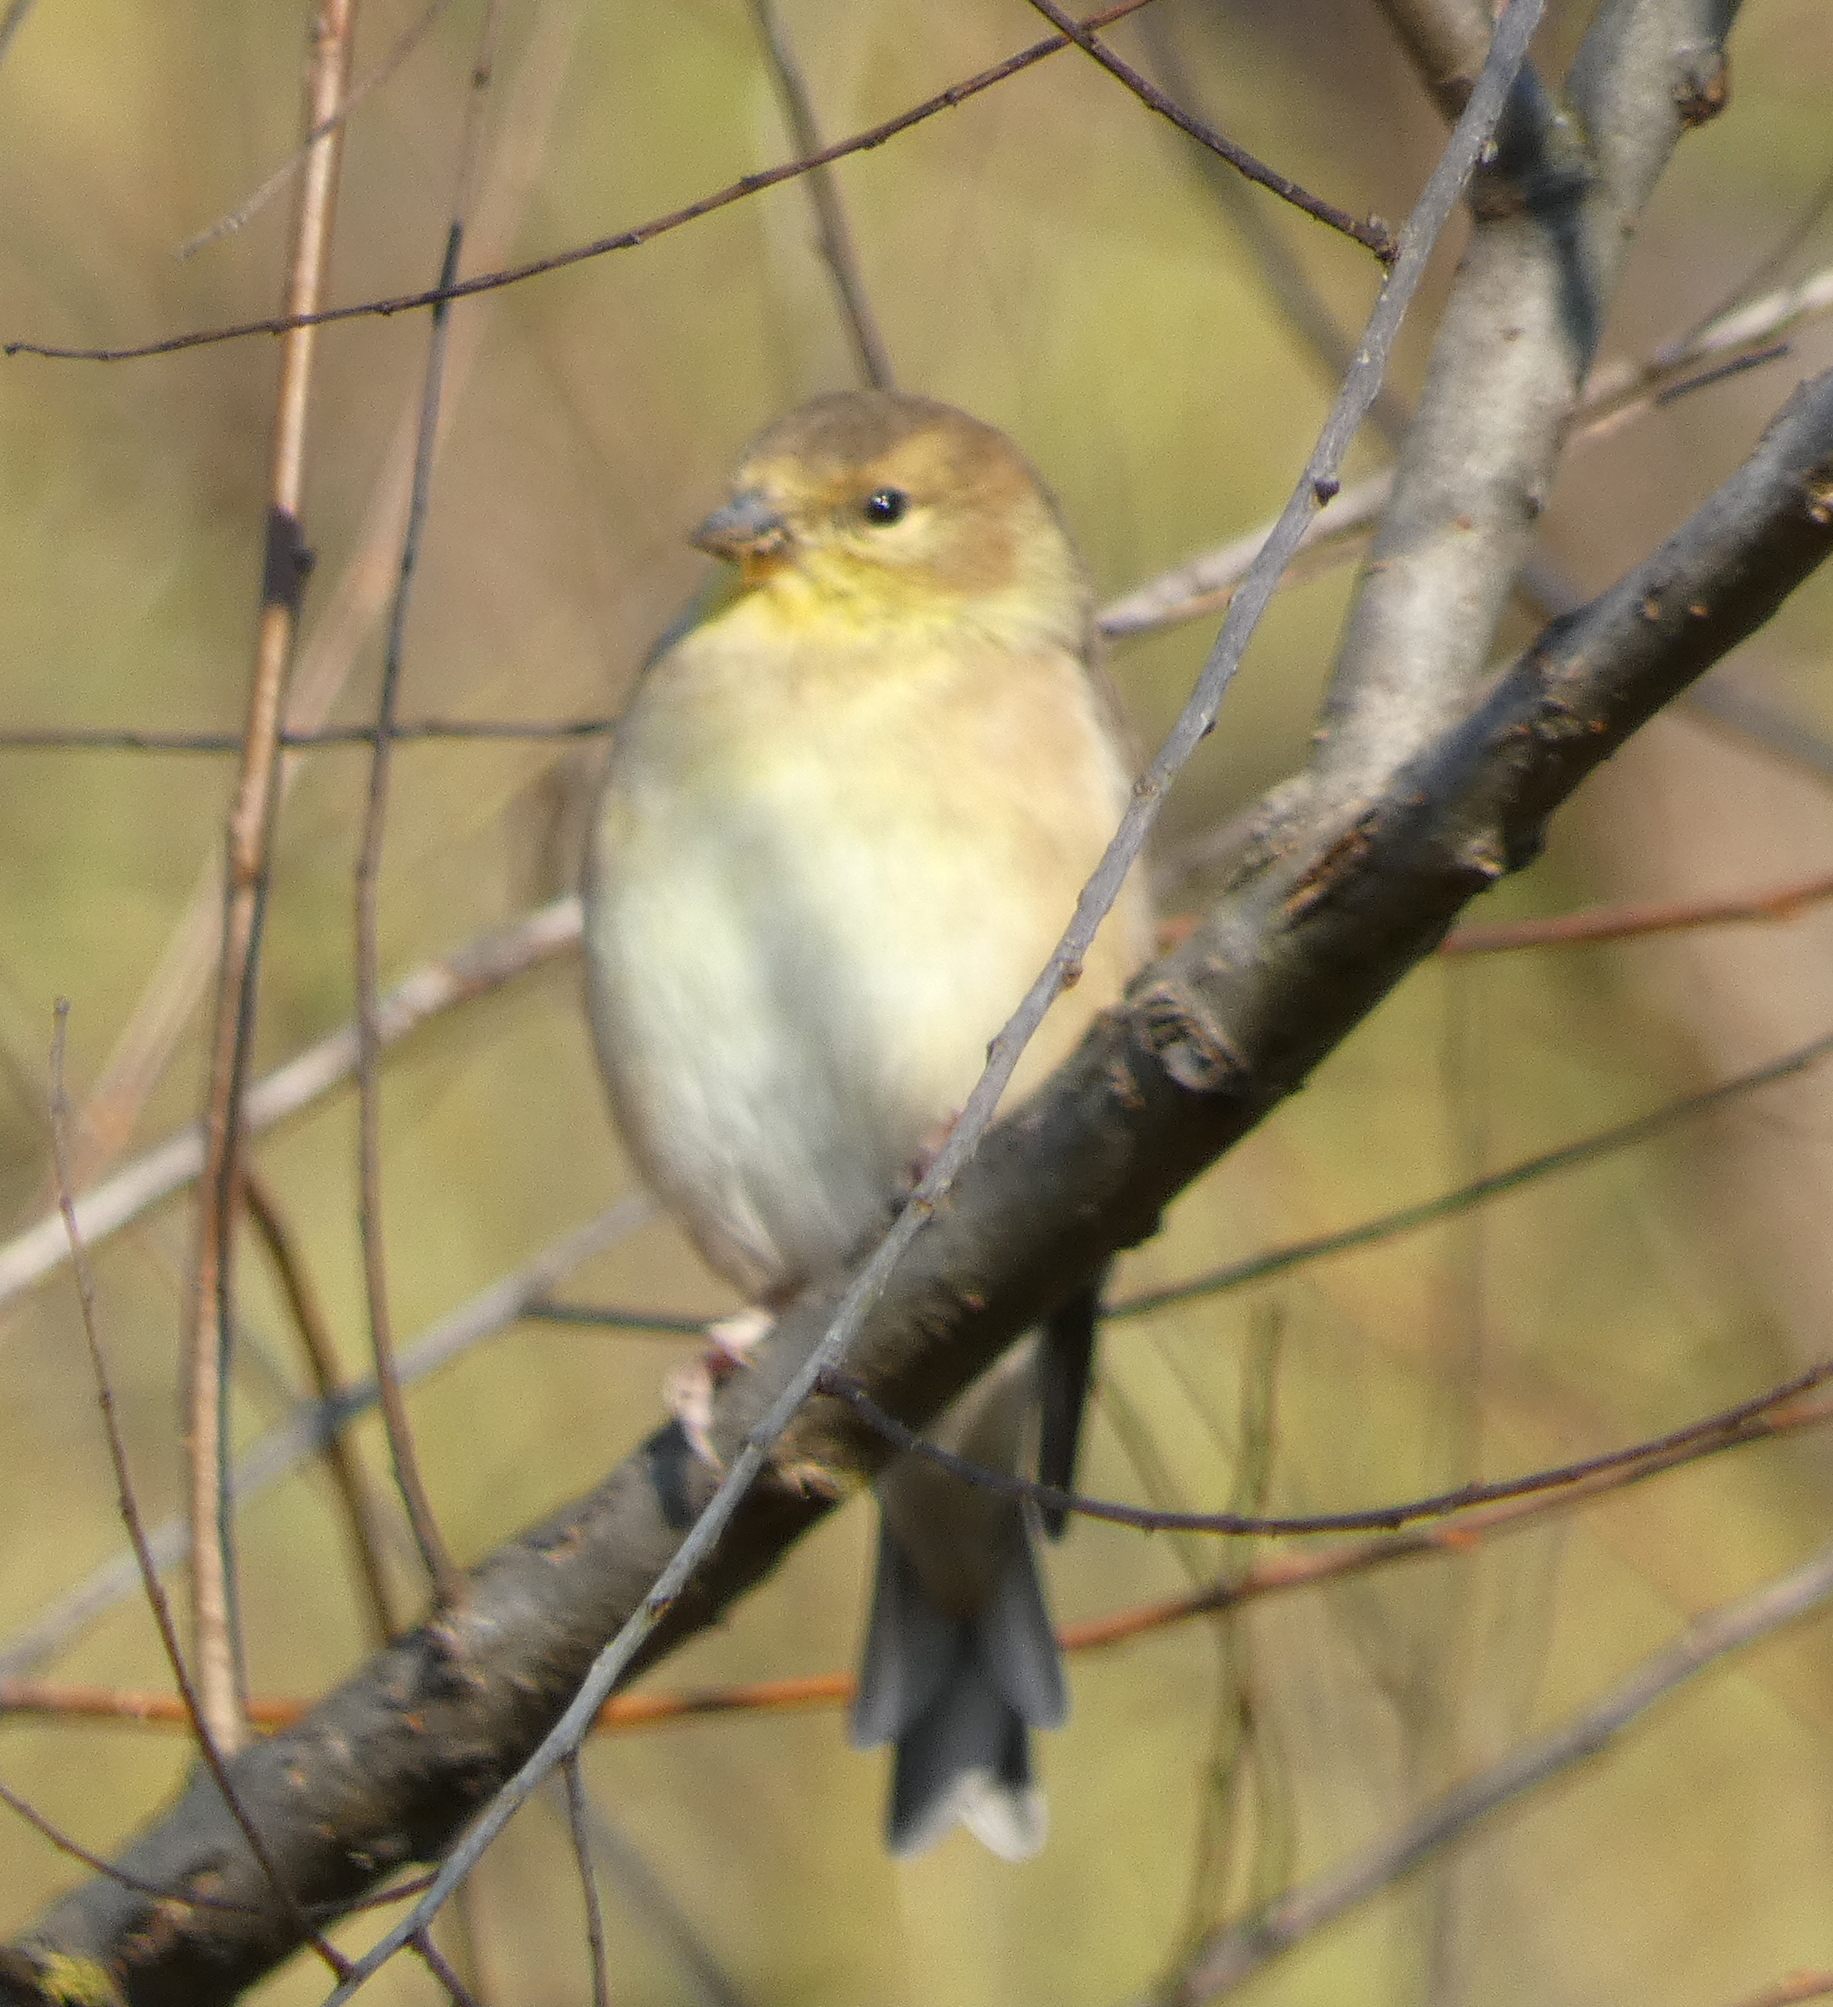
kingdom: Animalia
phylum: Chordata
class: Aves
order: Passeriformes
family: Fringillidae
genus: Spinus
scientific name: Spinus tristis
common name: American goldfinch
